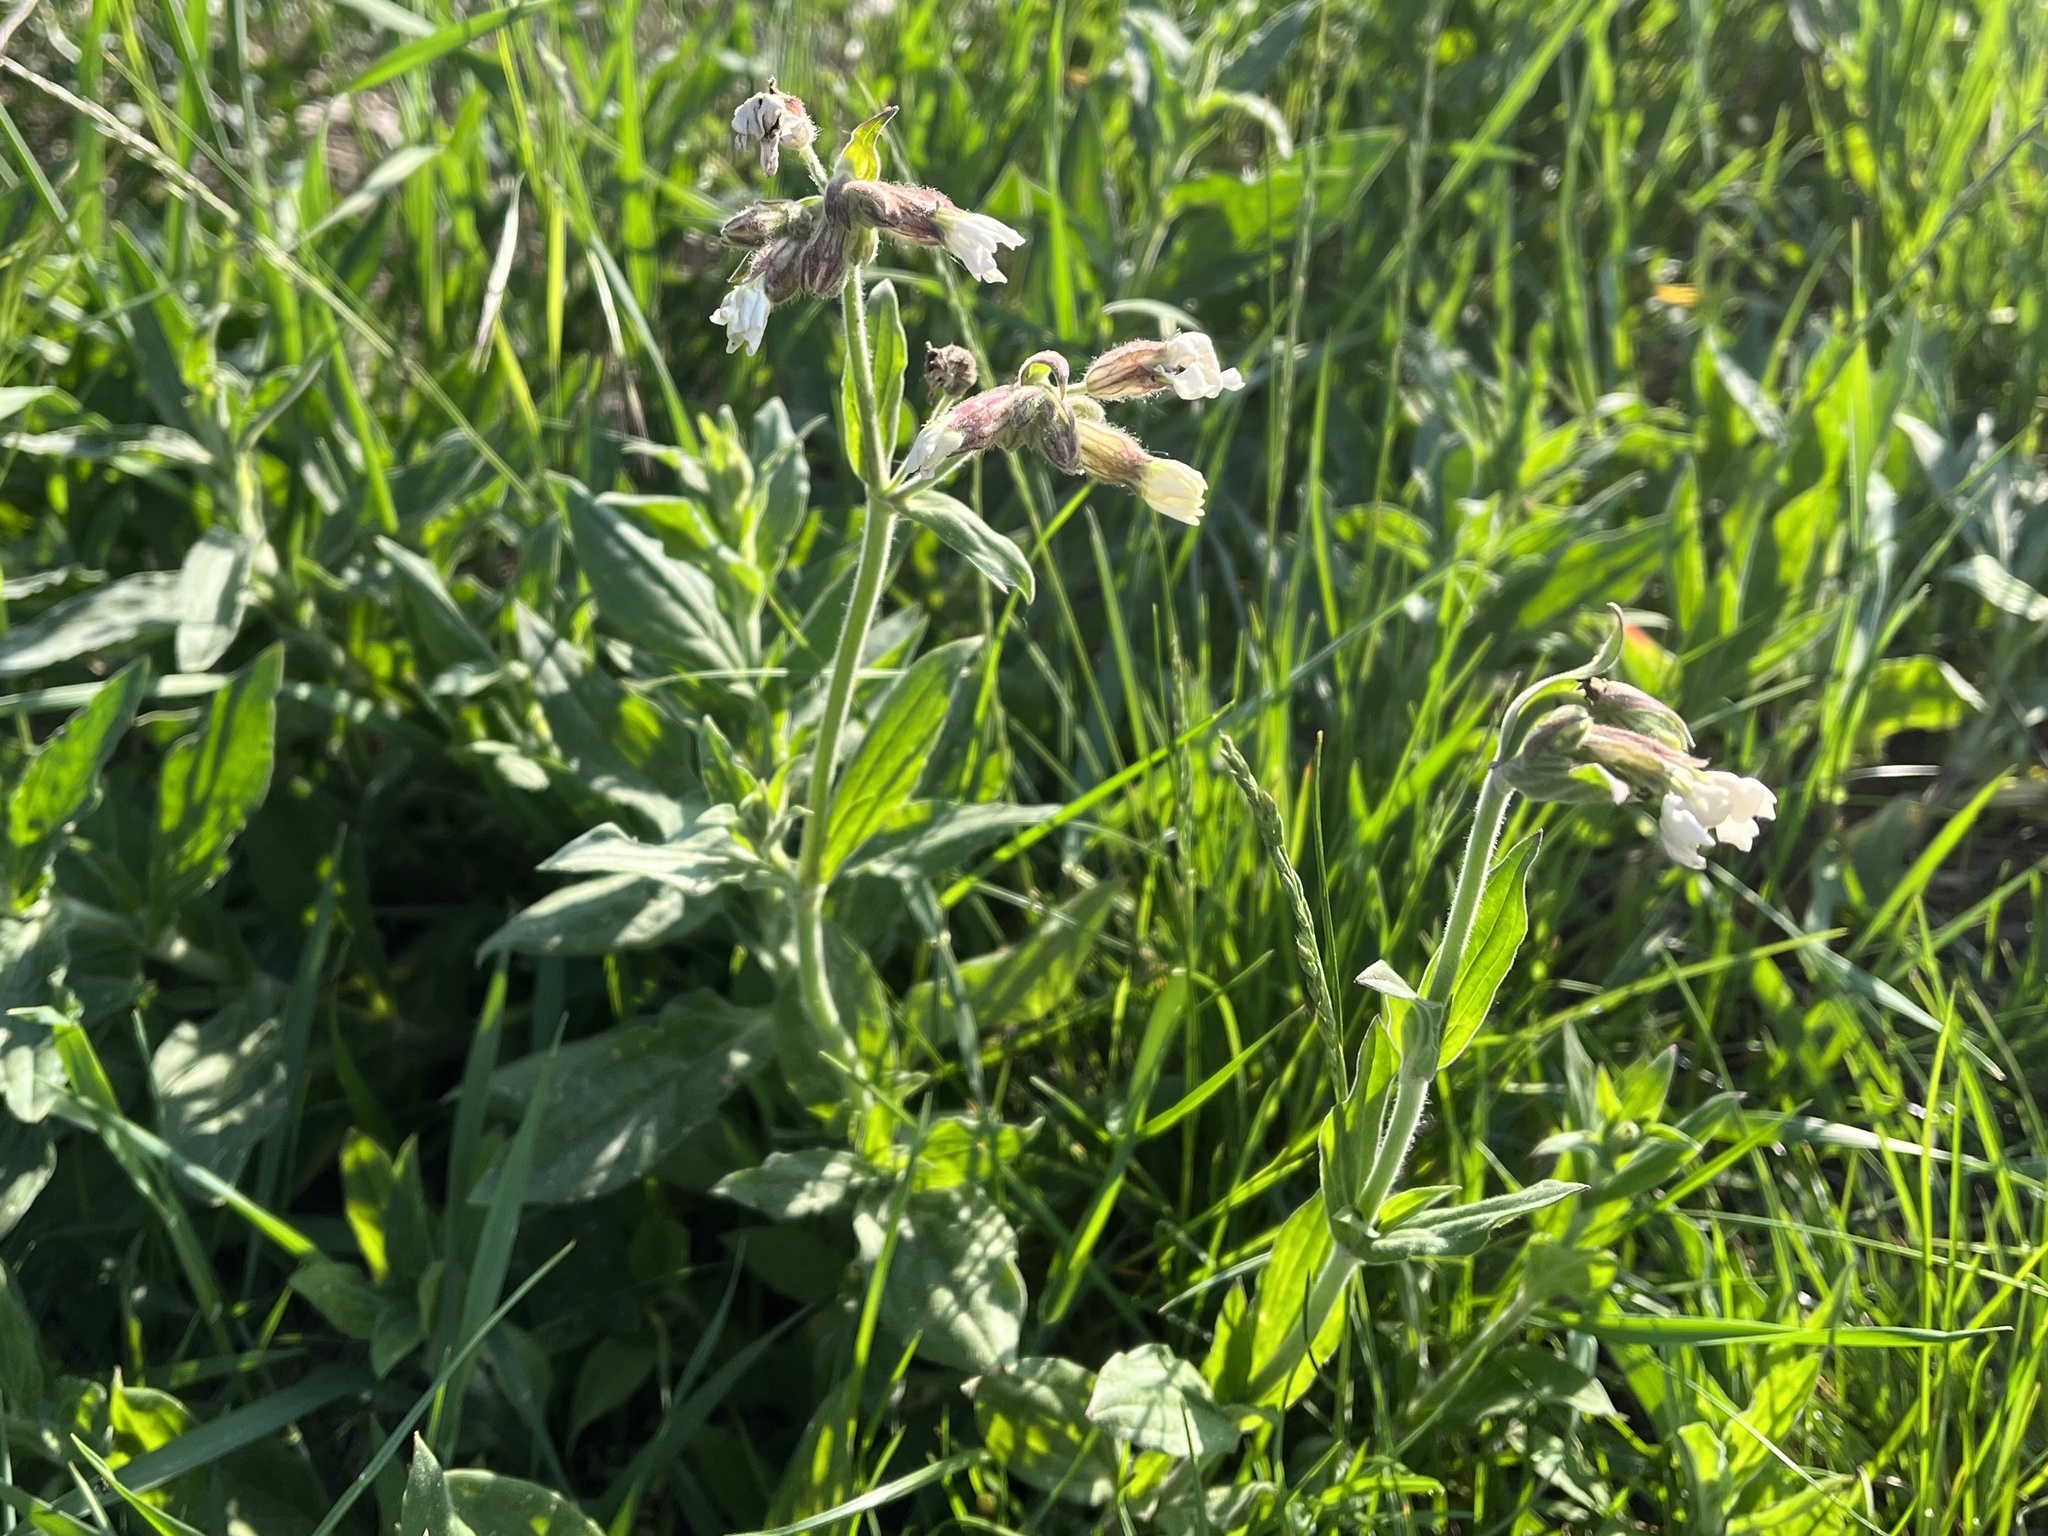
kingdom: Plantae
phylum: Tracheophyta
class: Magnoliopsida
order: Caryophyllales
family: Caryophyllaceae
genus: Silene
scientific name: Silene latifolia
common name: White campion
